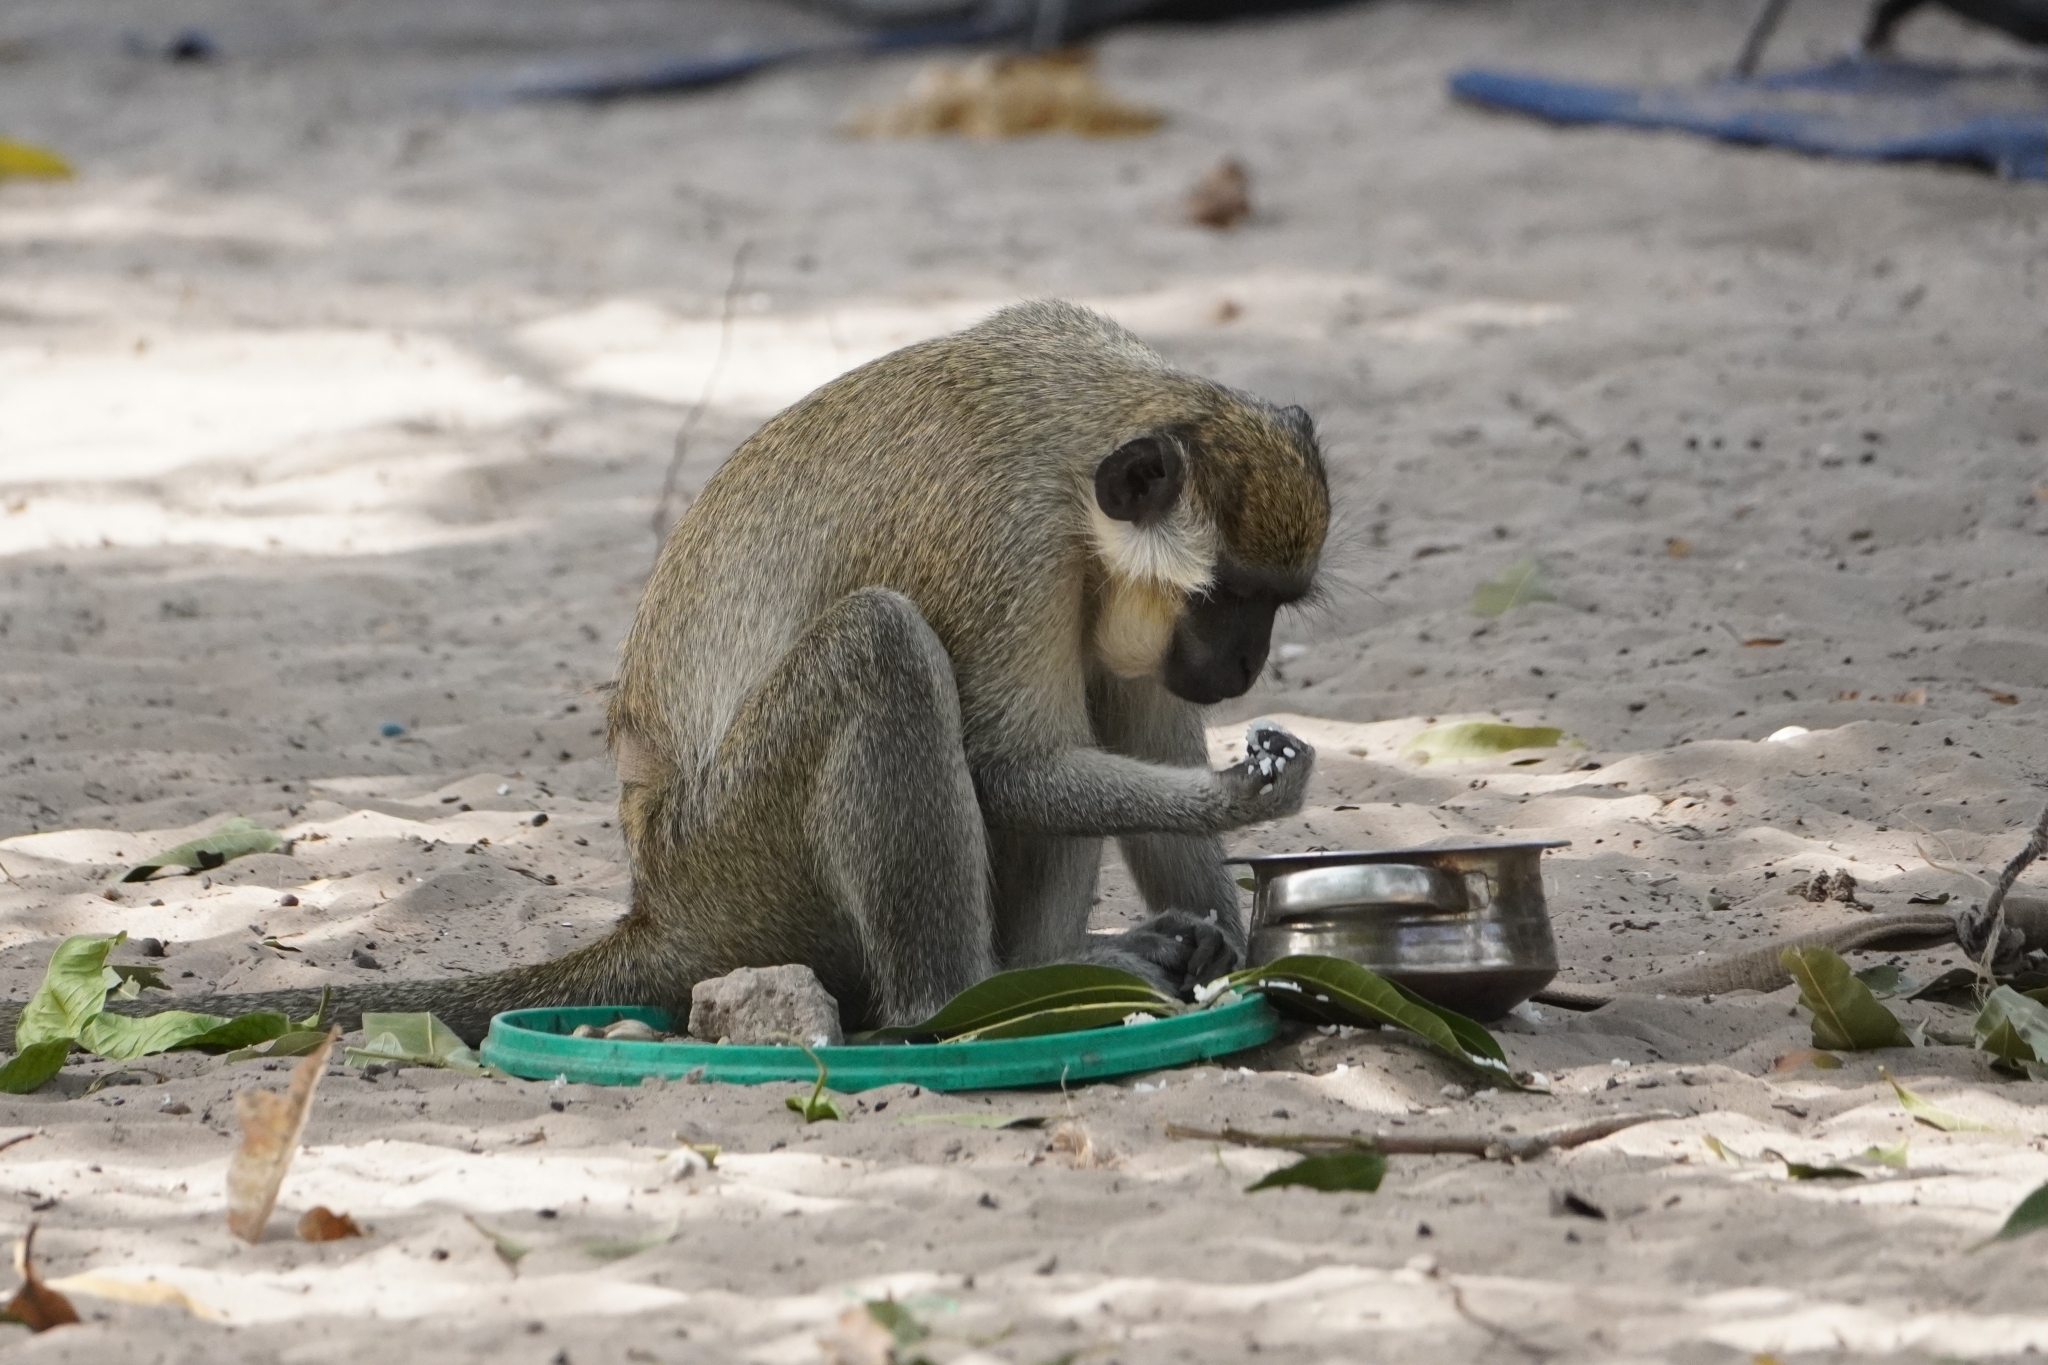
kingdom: Animalia
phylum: Chordata
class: Mammalia
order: Primates
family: Cercopithecidae
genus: Chlorocebus
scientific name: Chlorocebus sabaeus
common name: Green monkey
